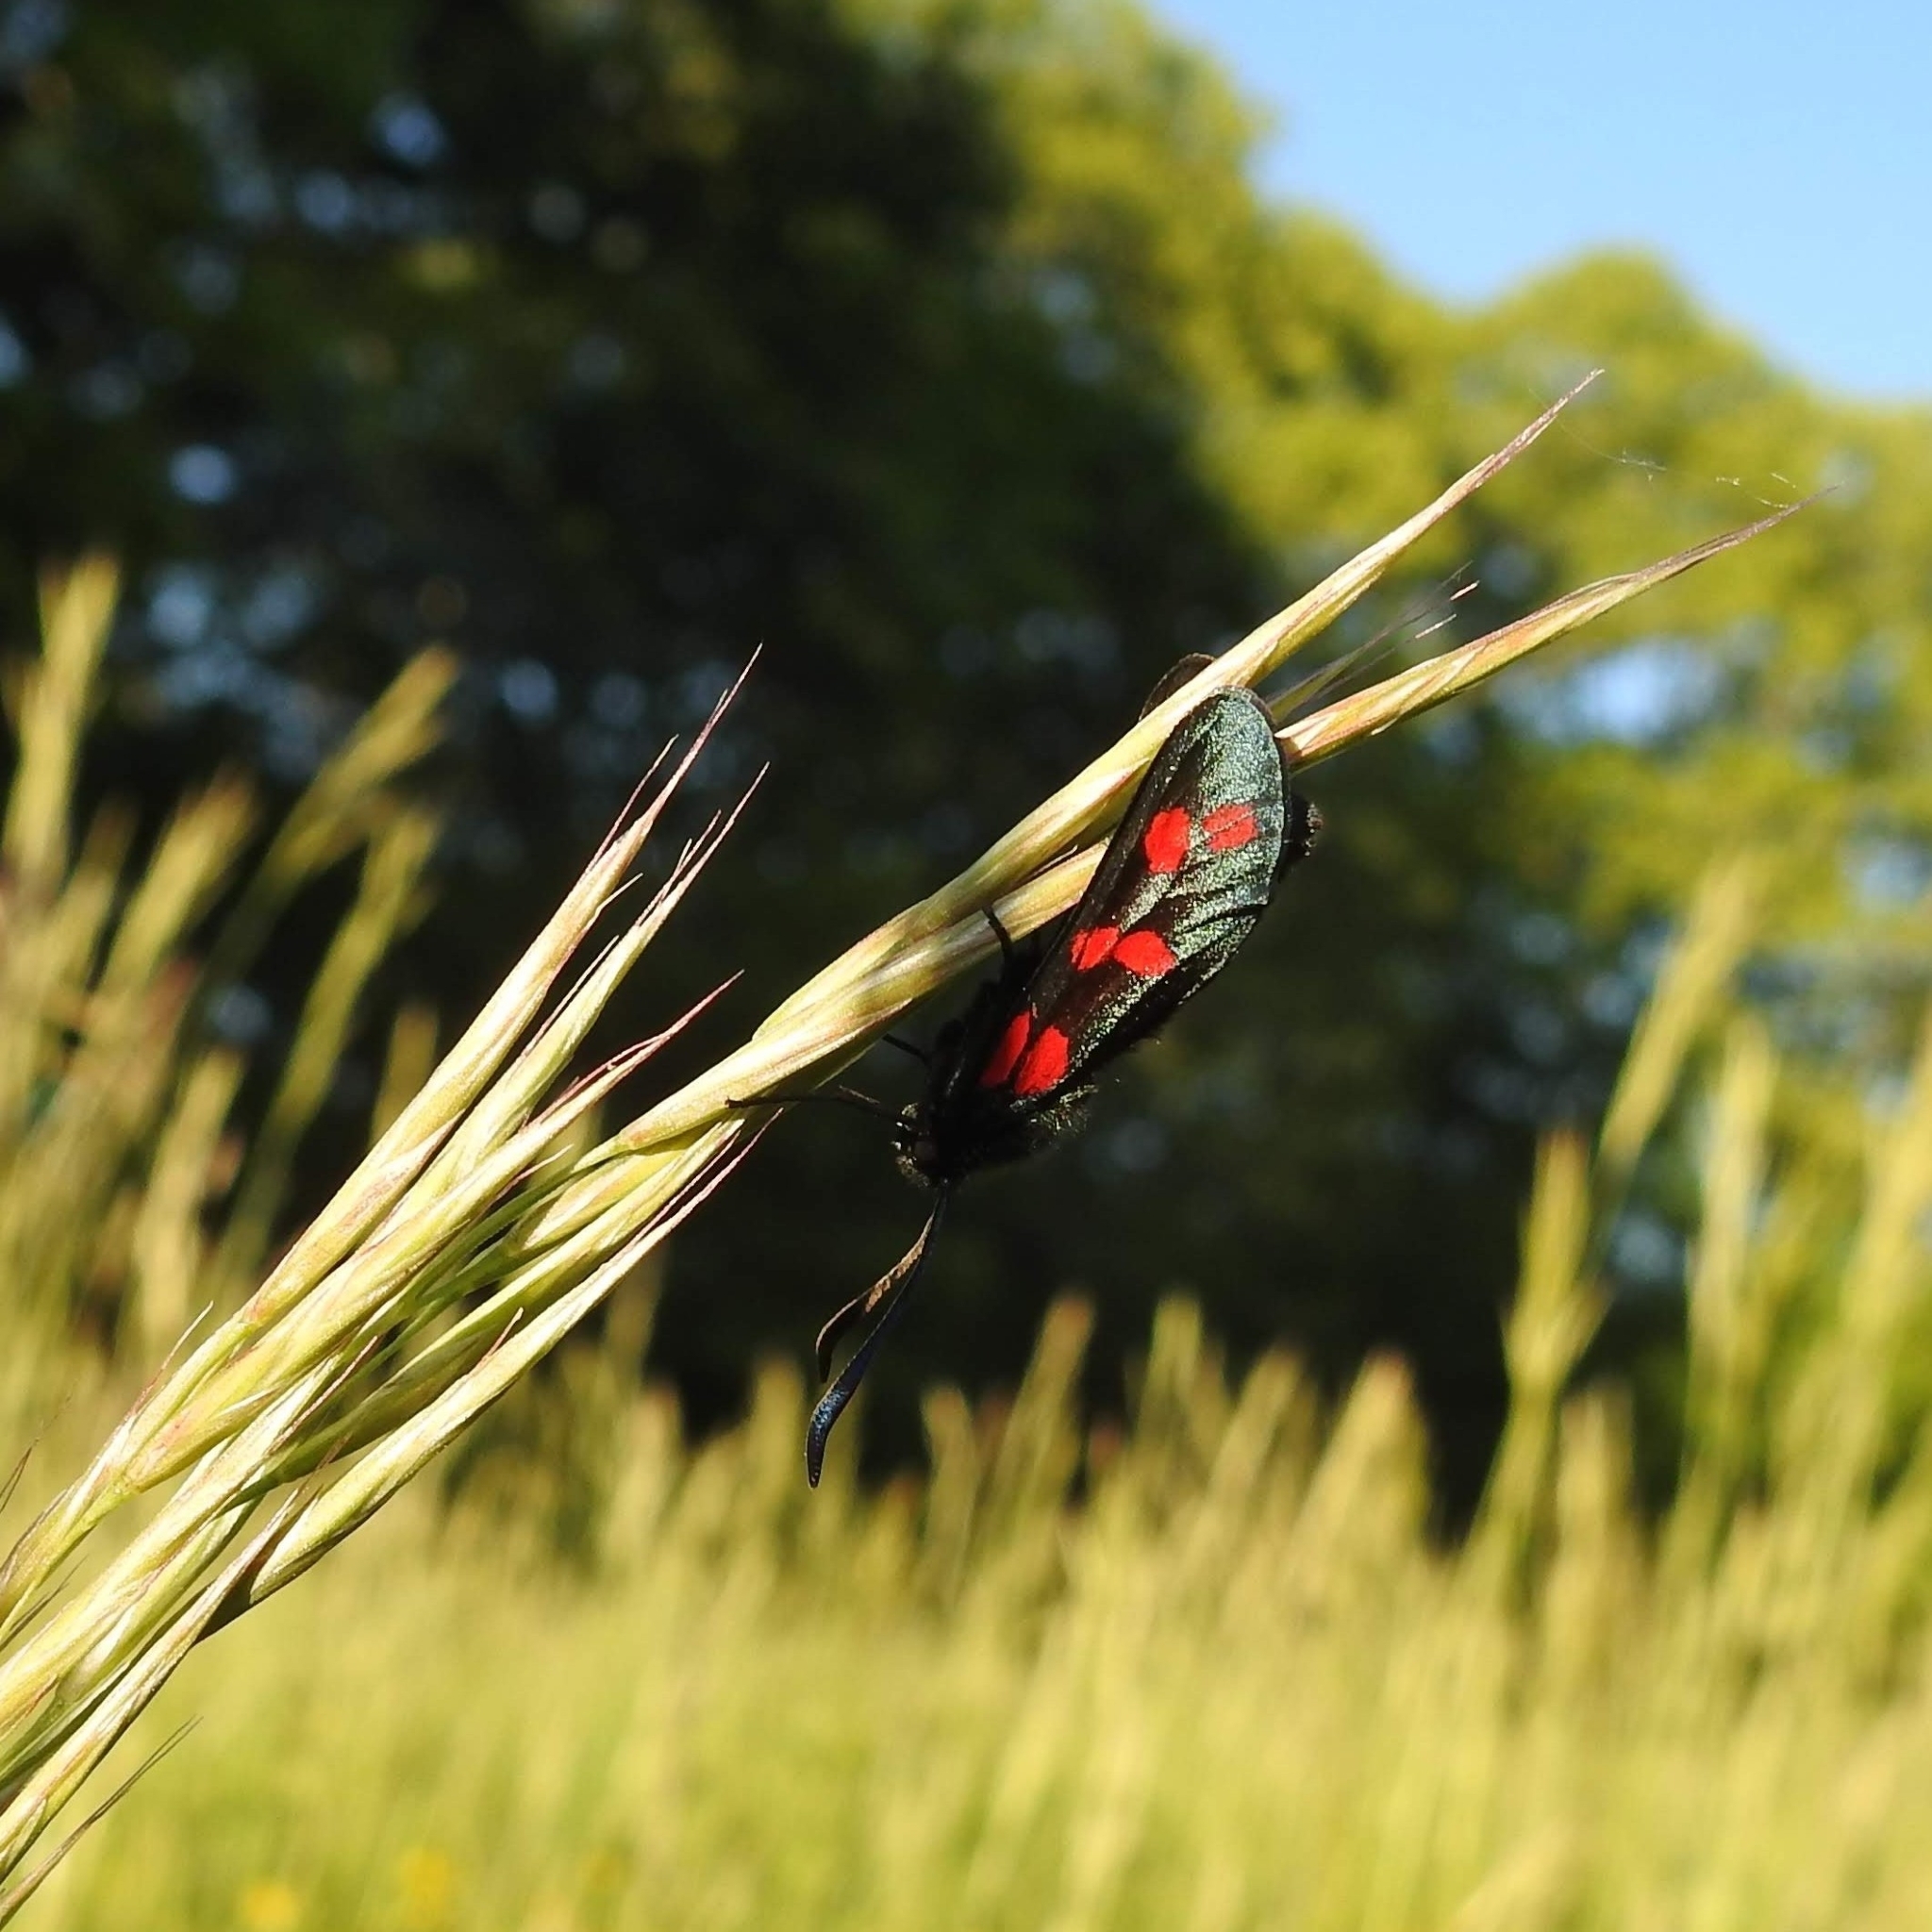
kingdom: Animalia
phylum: Arthropoda
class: Insecta
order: Lepidoptera
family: Zygaenidae
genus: Zygaena
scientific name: Zygaena filipendulae
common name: Six-spot burnet
